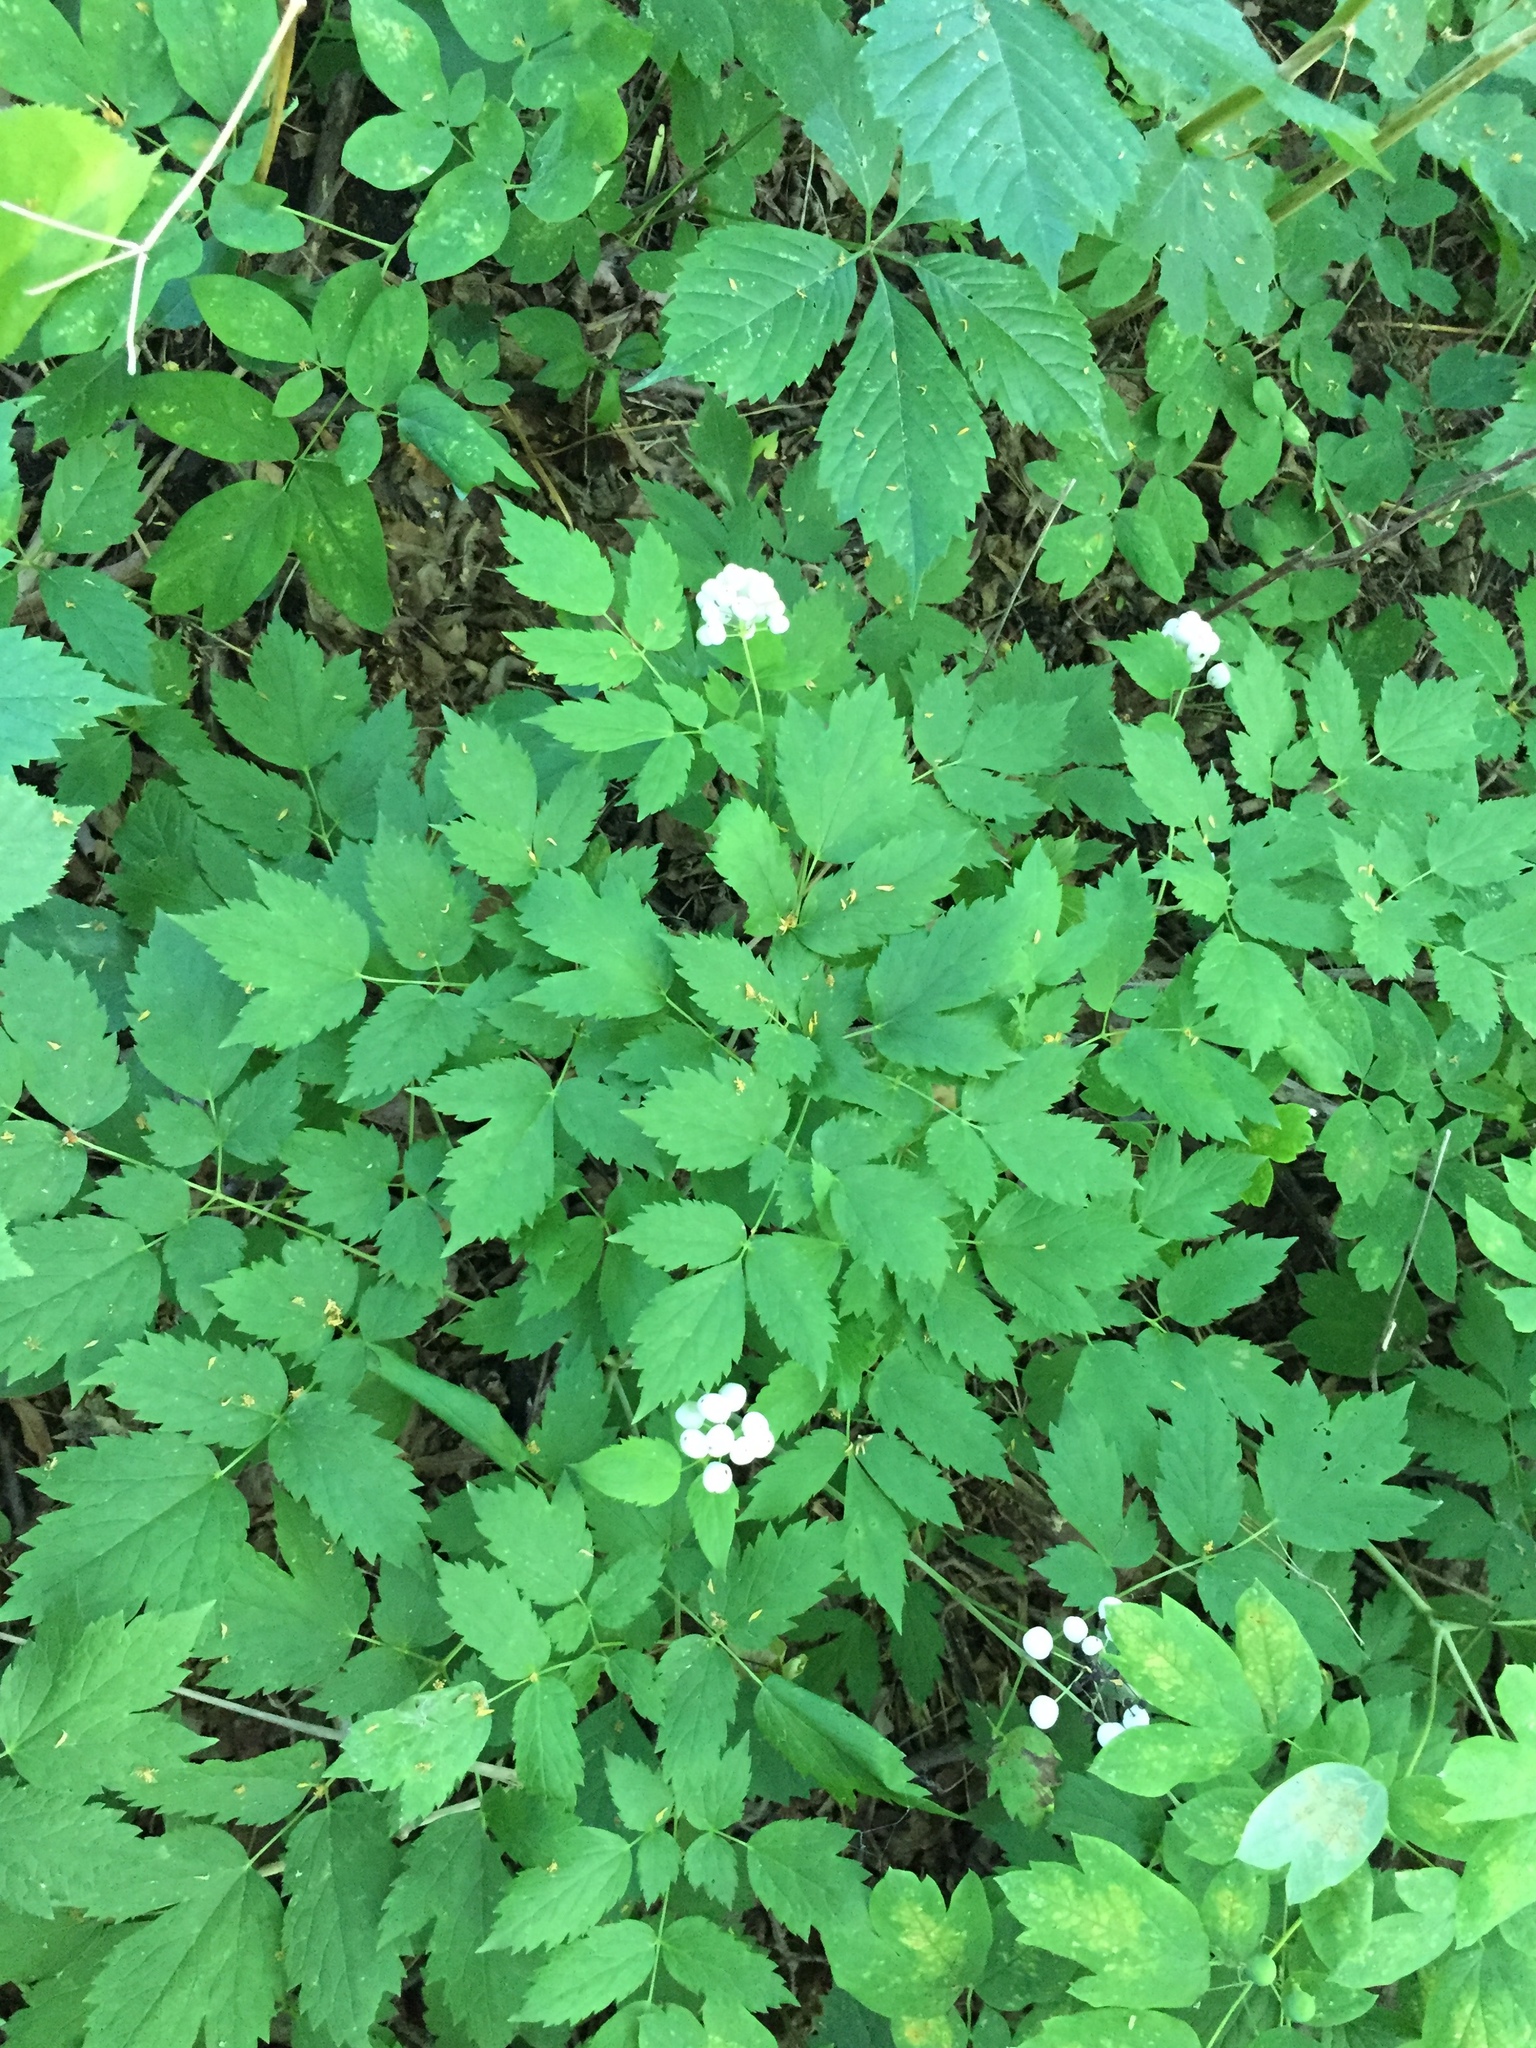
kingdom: Plantae
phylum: Tracheophyta
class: Magnoliopsida
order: Ranunculales
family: Ranunculaceae
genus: Actaea
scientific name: Actaea rubra
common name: Red baneberry
